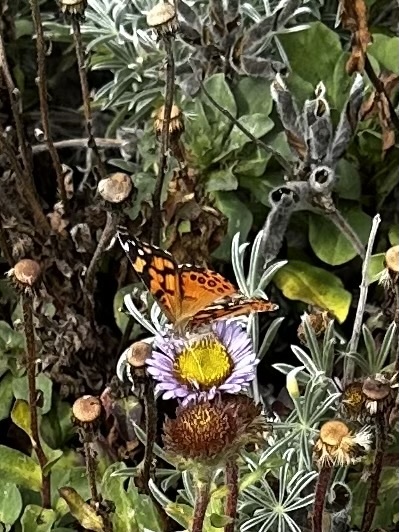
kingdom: Animalia
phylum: Arthropoda
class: Insecta
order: Lepidoptera
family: Nymphalidae
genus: Vanessa
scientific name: Vanessa annabella
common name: West coast lady
